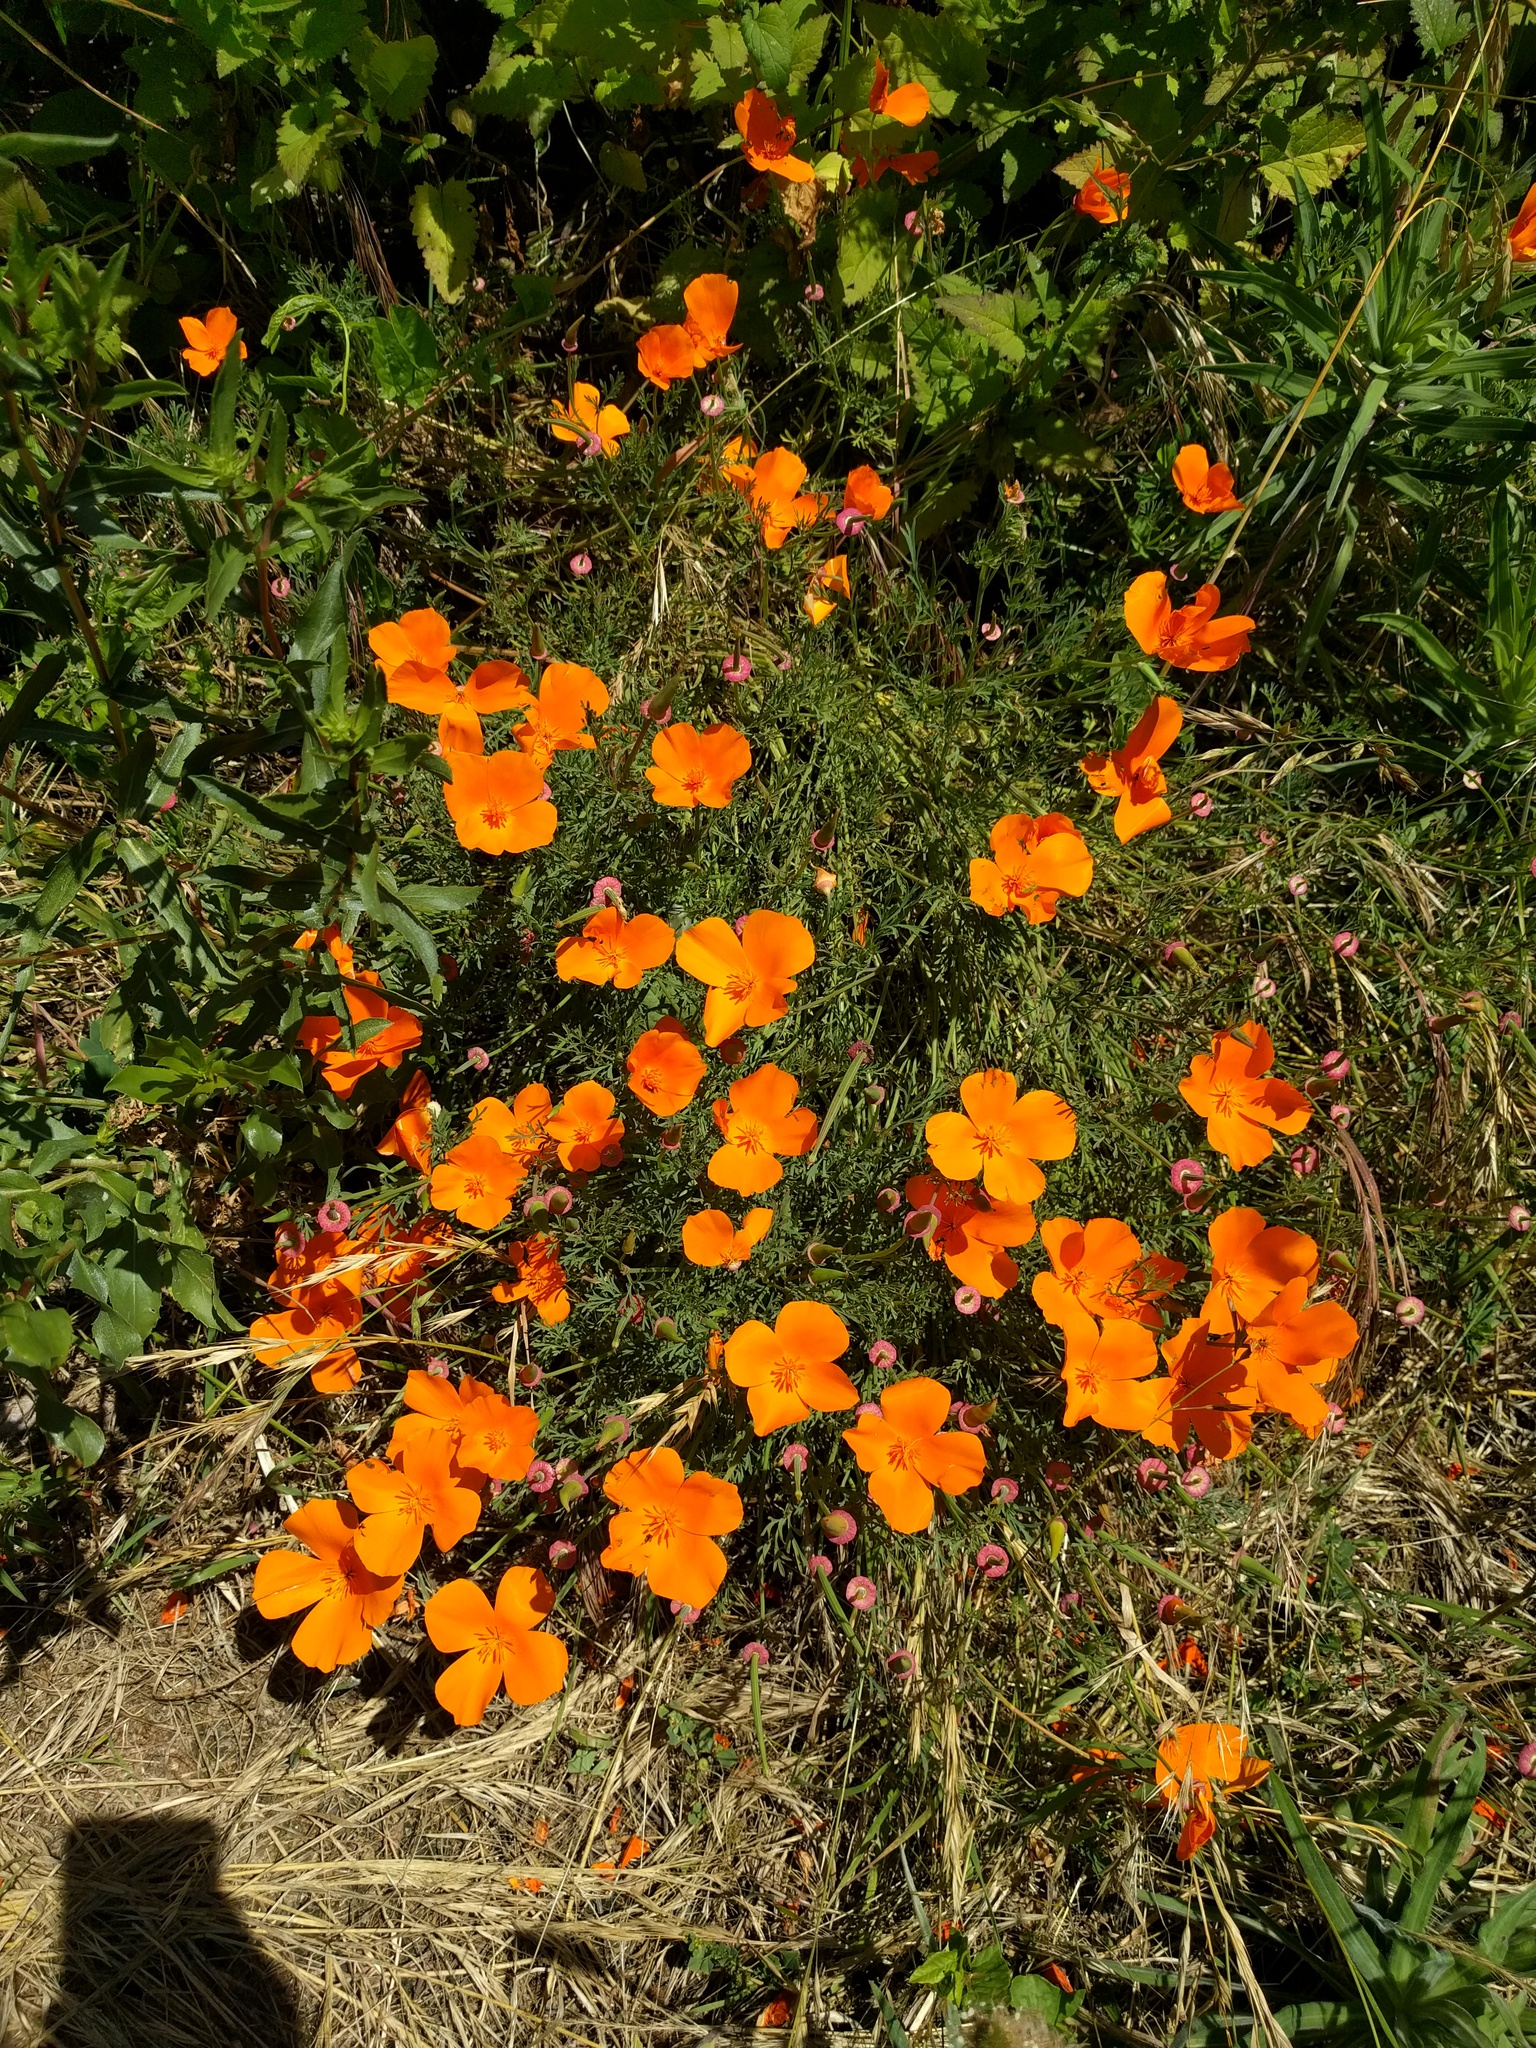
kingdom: Plantae
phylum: Tracheophyta
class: Magnoliopsida
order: Ranunculales
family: Papaveraceae
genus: Eschscholzia
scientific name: Eschscholzia californica
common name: California poppy
